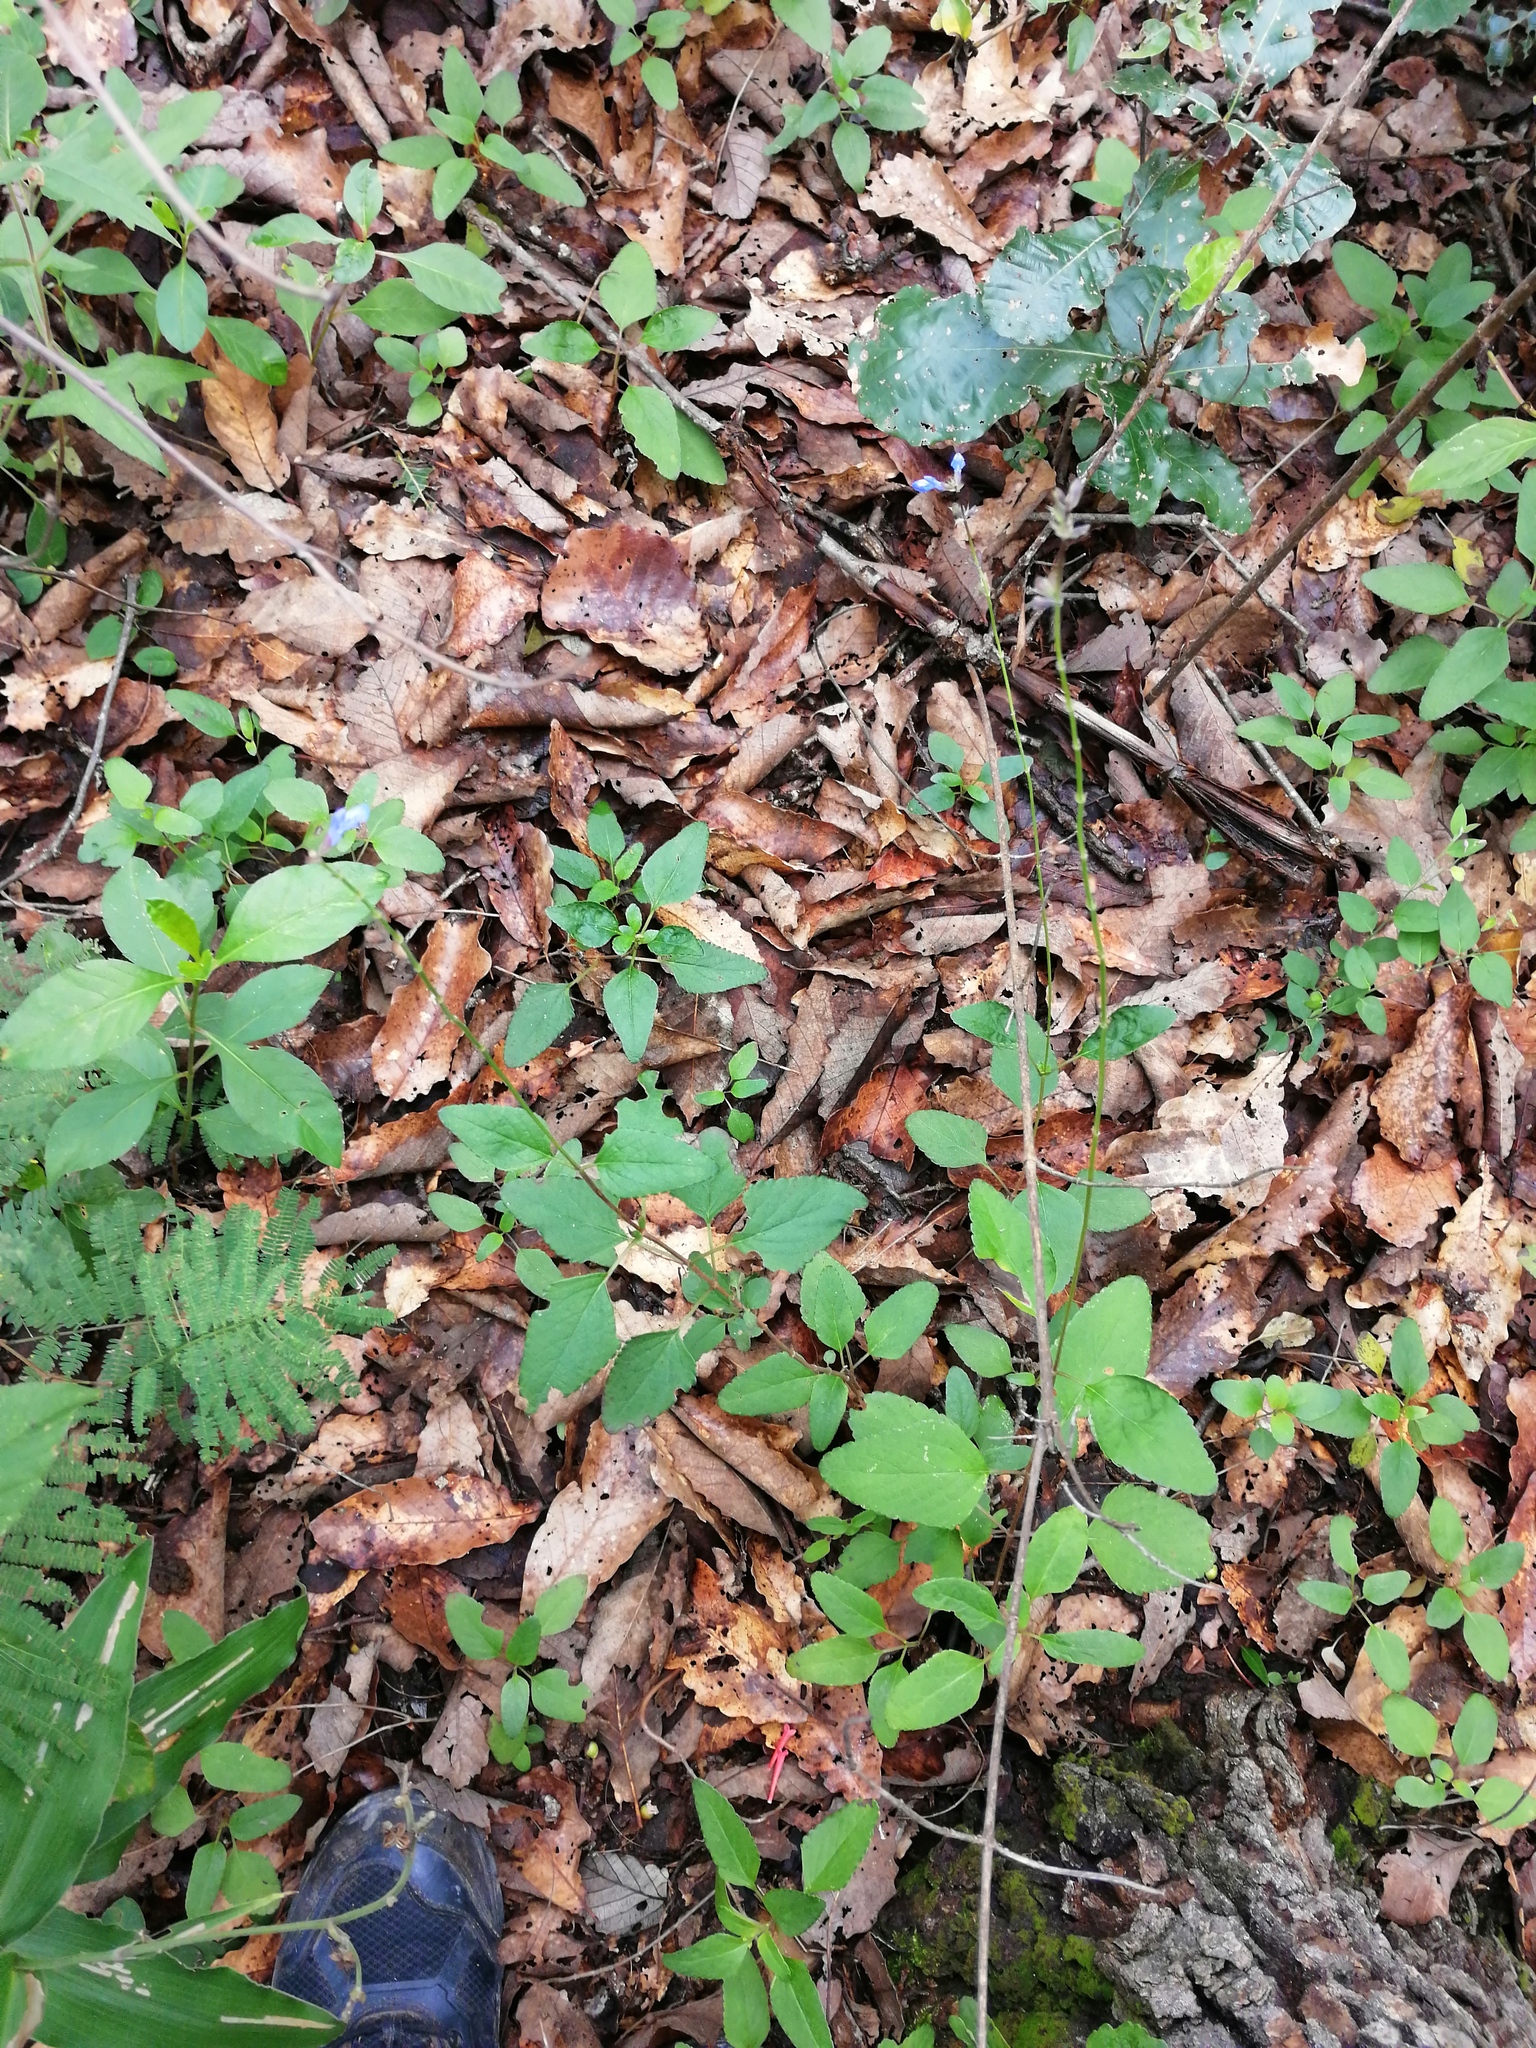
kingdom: Plantae
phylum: Tracheophyta
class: Magnoliopsida
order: Lamiales
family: Lamiaceae
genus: Salvia
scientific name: Salvia prunelloides
